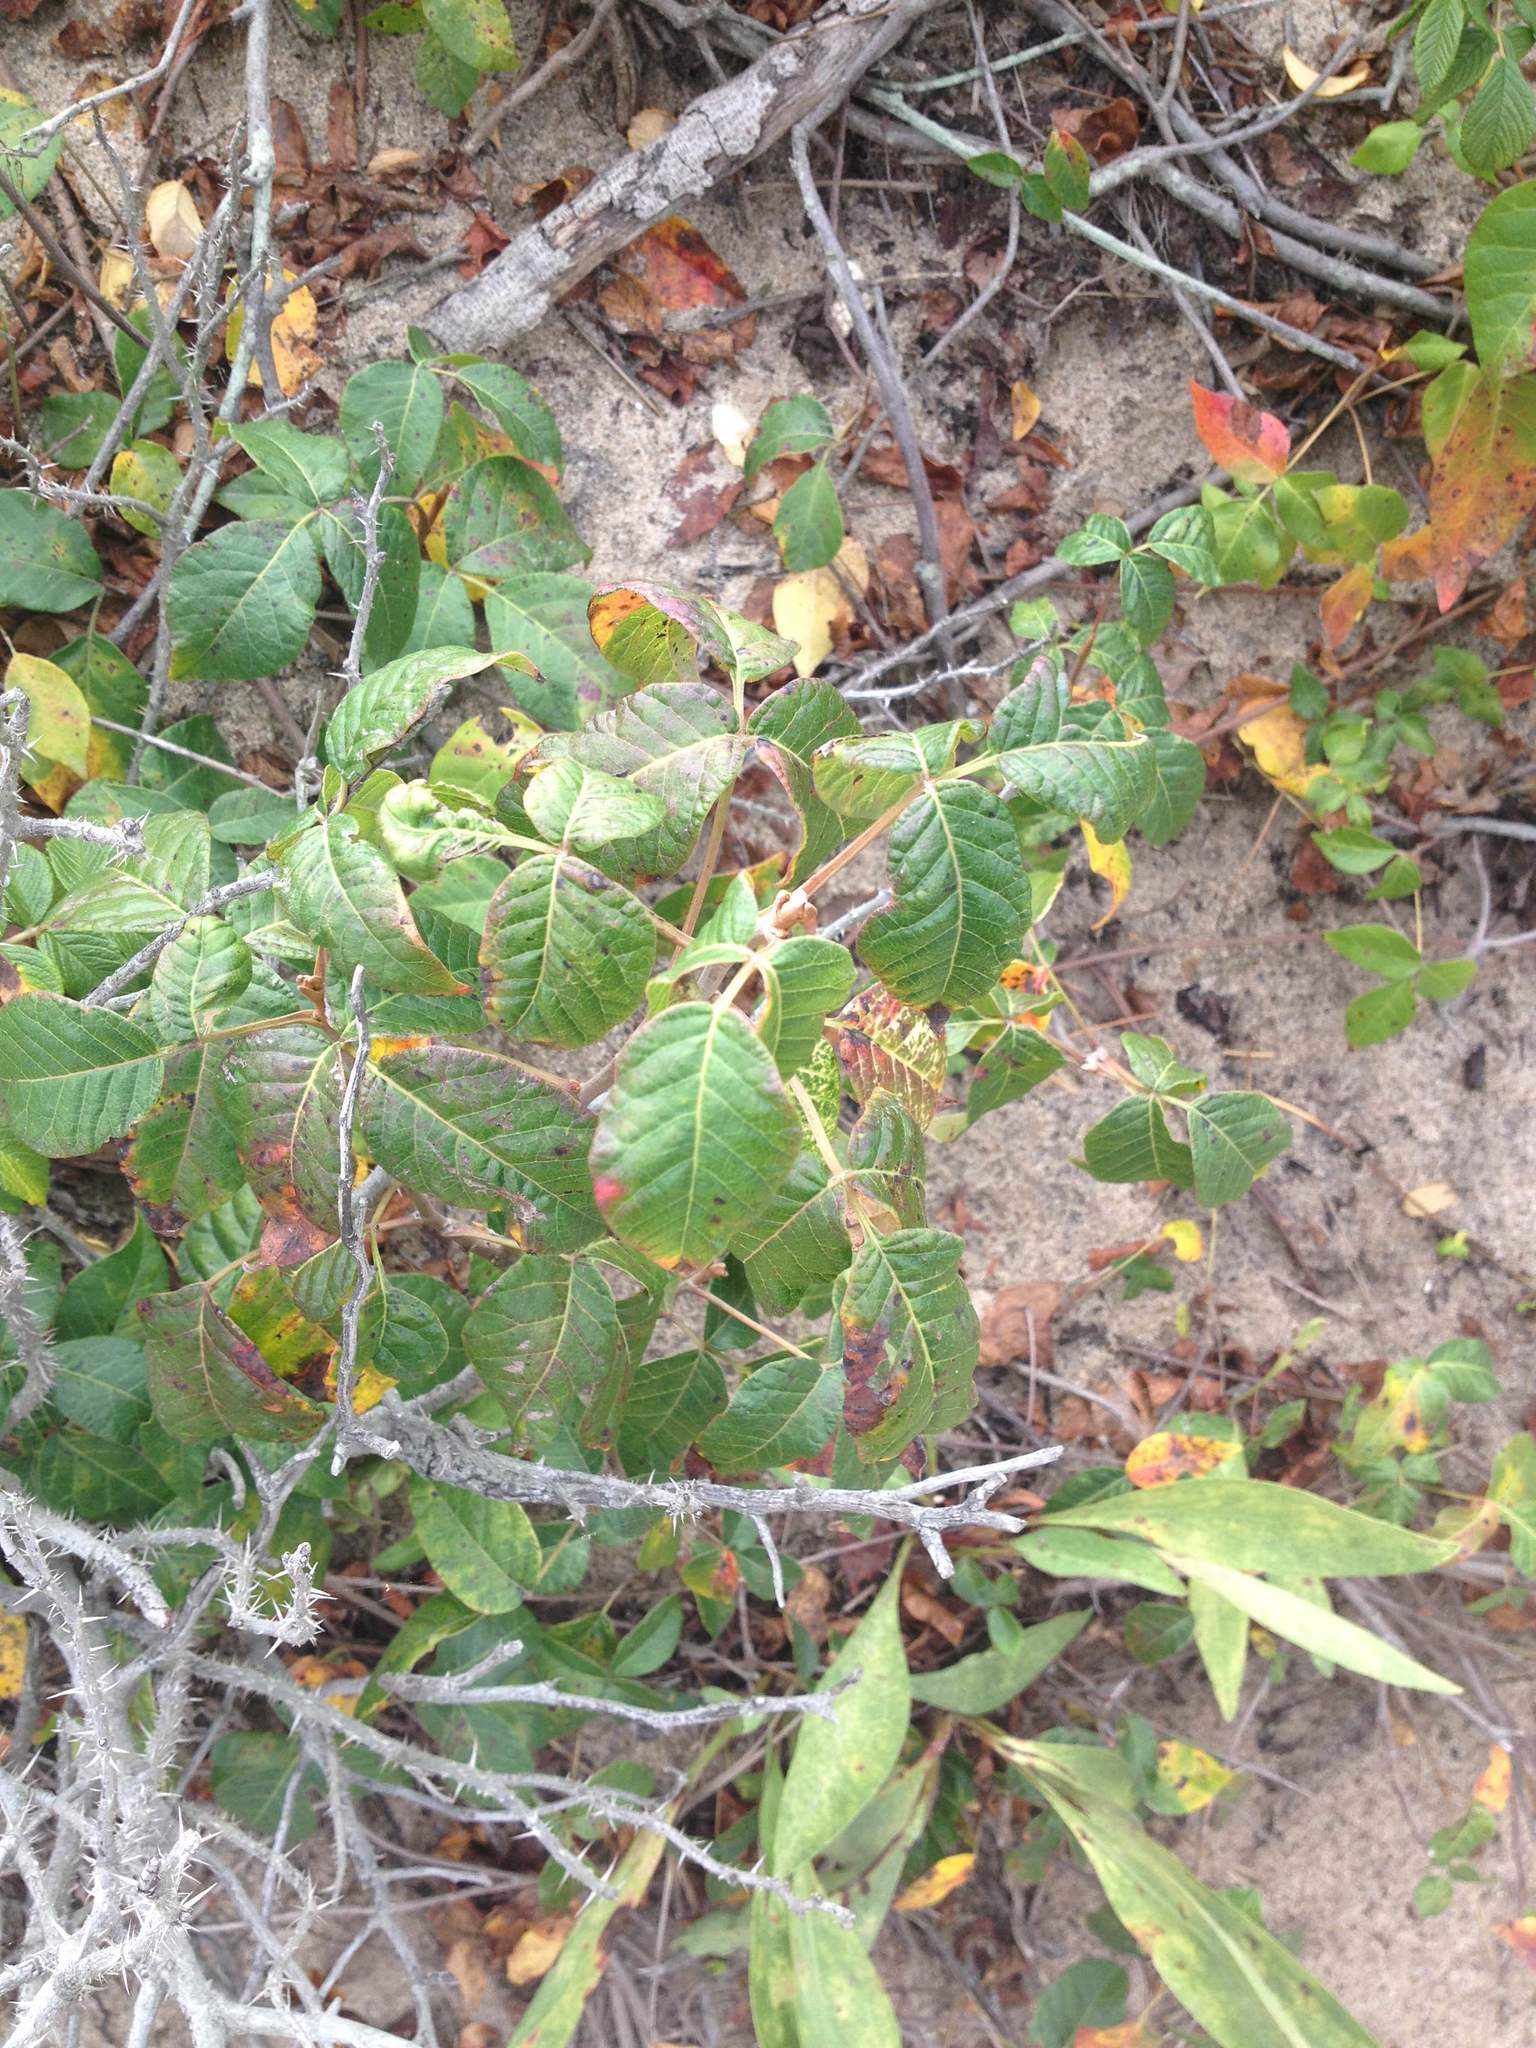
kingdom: Plantae
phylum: Tracheophyta
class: Magnoliopsida
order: Sapindales
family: Anacardiaceae
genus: Toxicodendron
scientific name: Toxicodendron radicans
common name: Poison ivy
